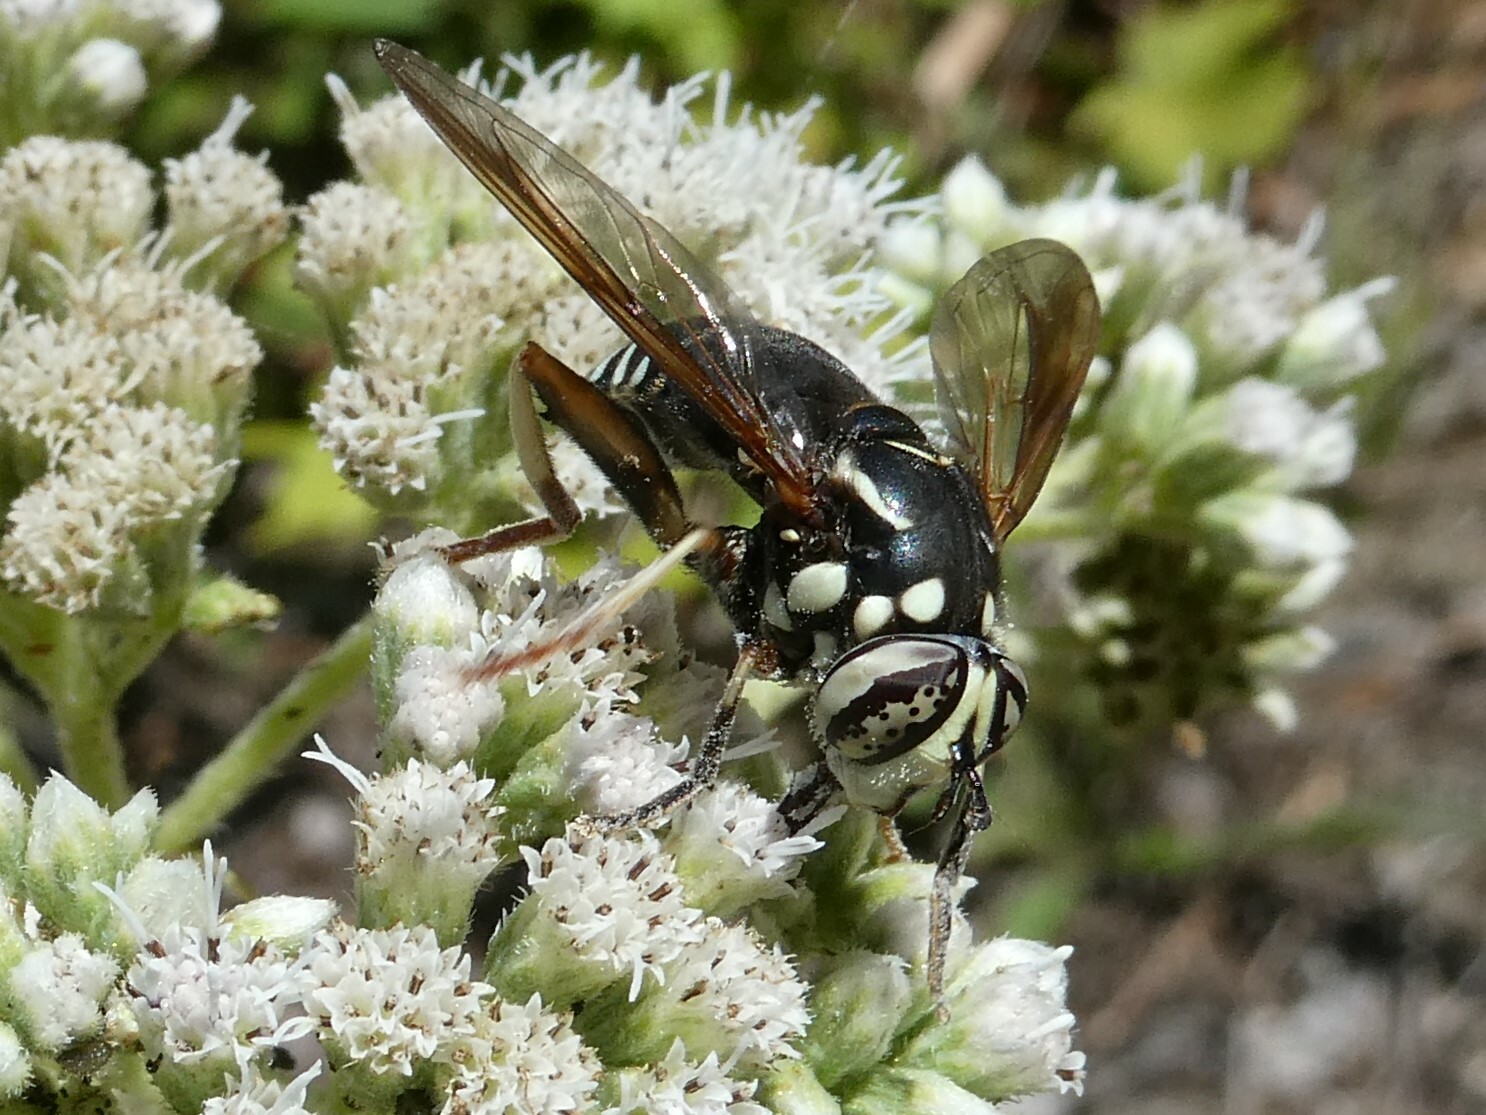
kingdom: Animalia
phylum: Arthropoda
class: Insecta
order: Diptera
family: Syrphidae
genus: Spilomyia
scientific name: Spilomyia fusca
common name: Bald-faced hornet fly
